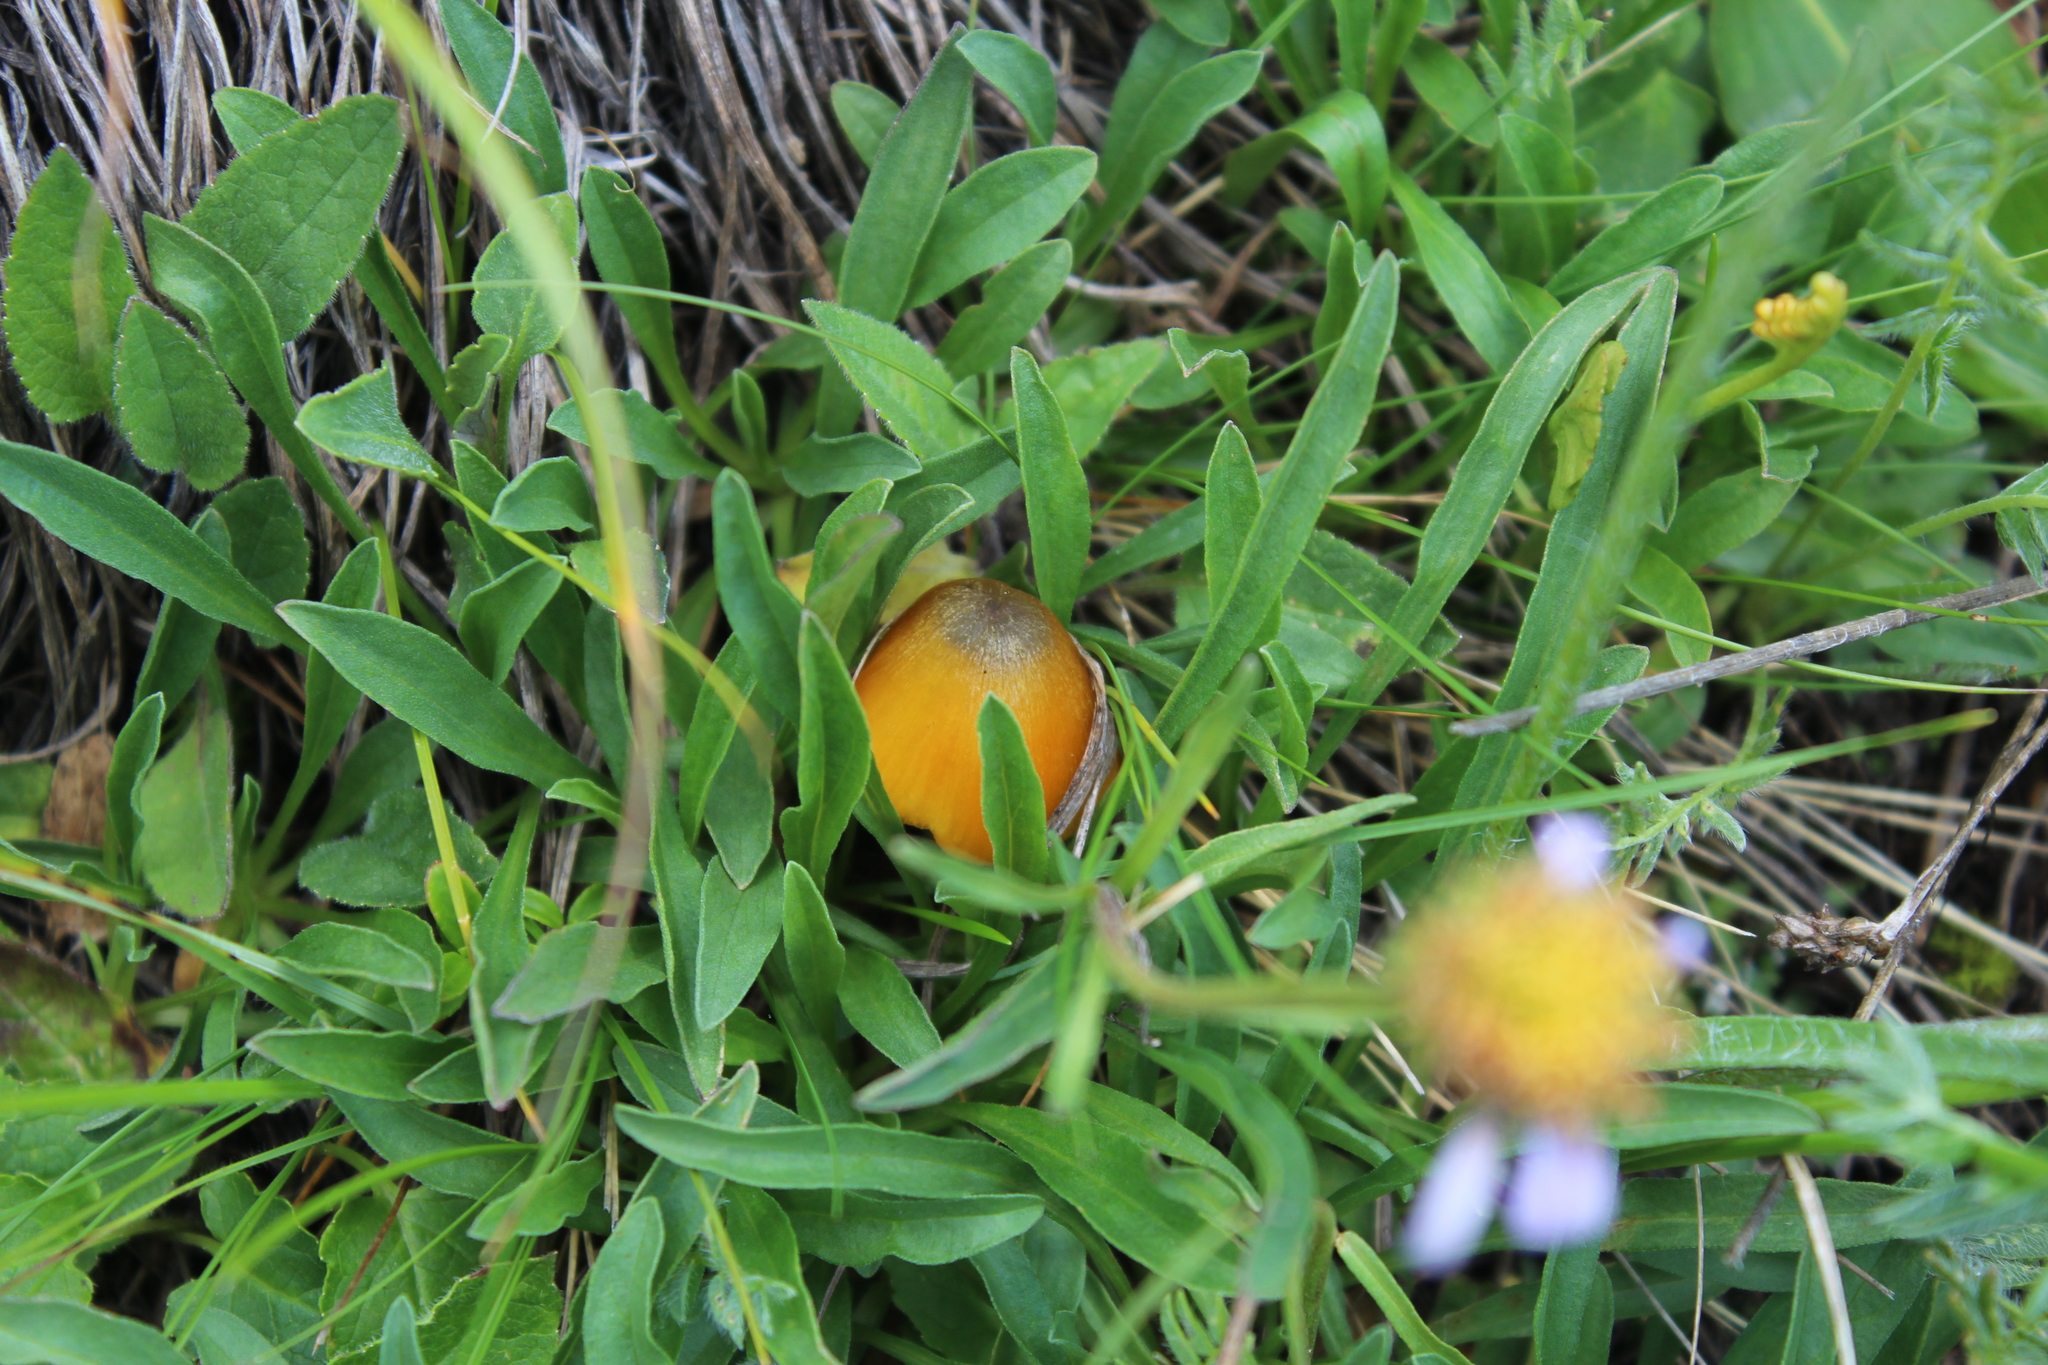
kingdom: Fungi
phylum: Basidiomycota
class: Agaricomycetes
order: Agaricales
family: Hygrophoraceae
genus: Hygrocybe
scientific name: Hygrocybe conica
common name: Blackening wax-cap
